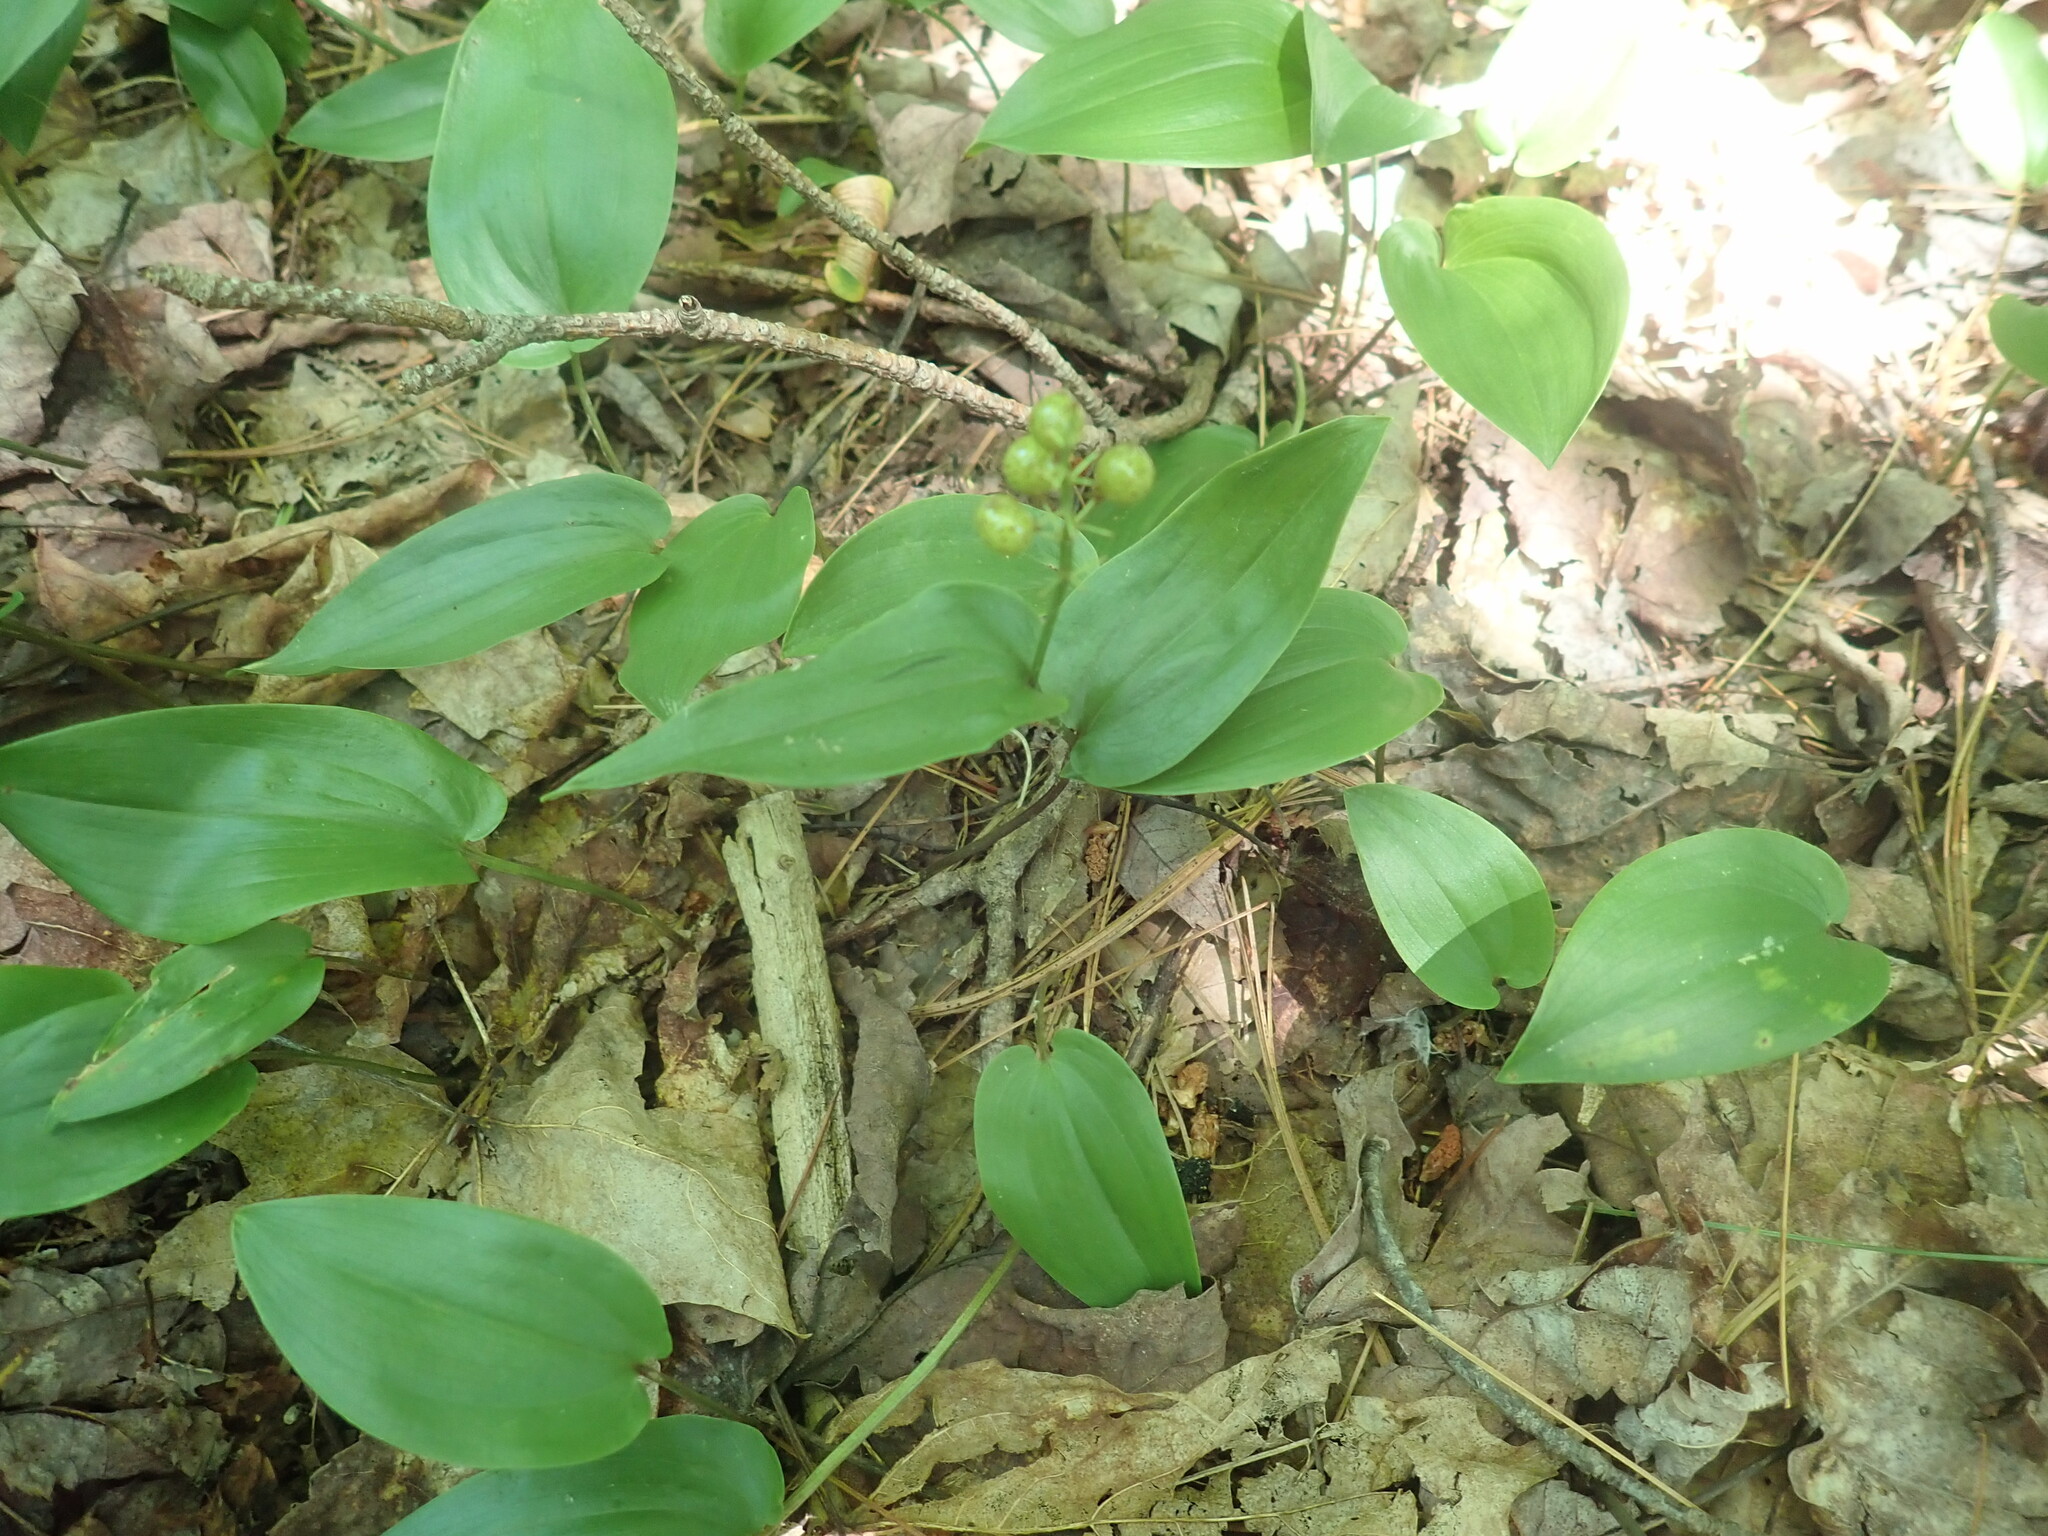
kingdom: Plantae
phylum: Tracheophyta
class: Liliopsida
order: Asparagales
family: Asparagaceae
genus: Maianthemum
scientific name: Maianthemum canadense
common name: False lily-of-the-valley
